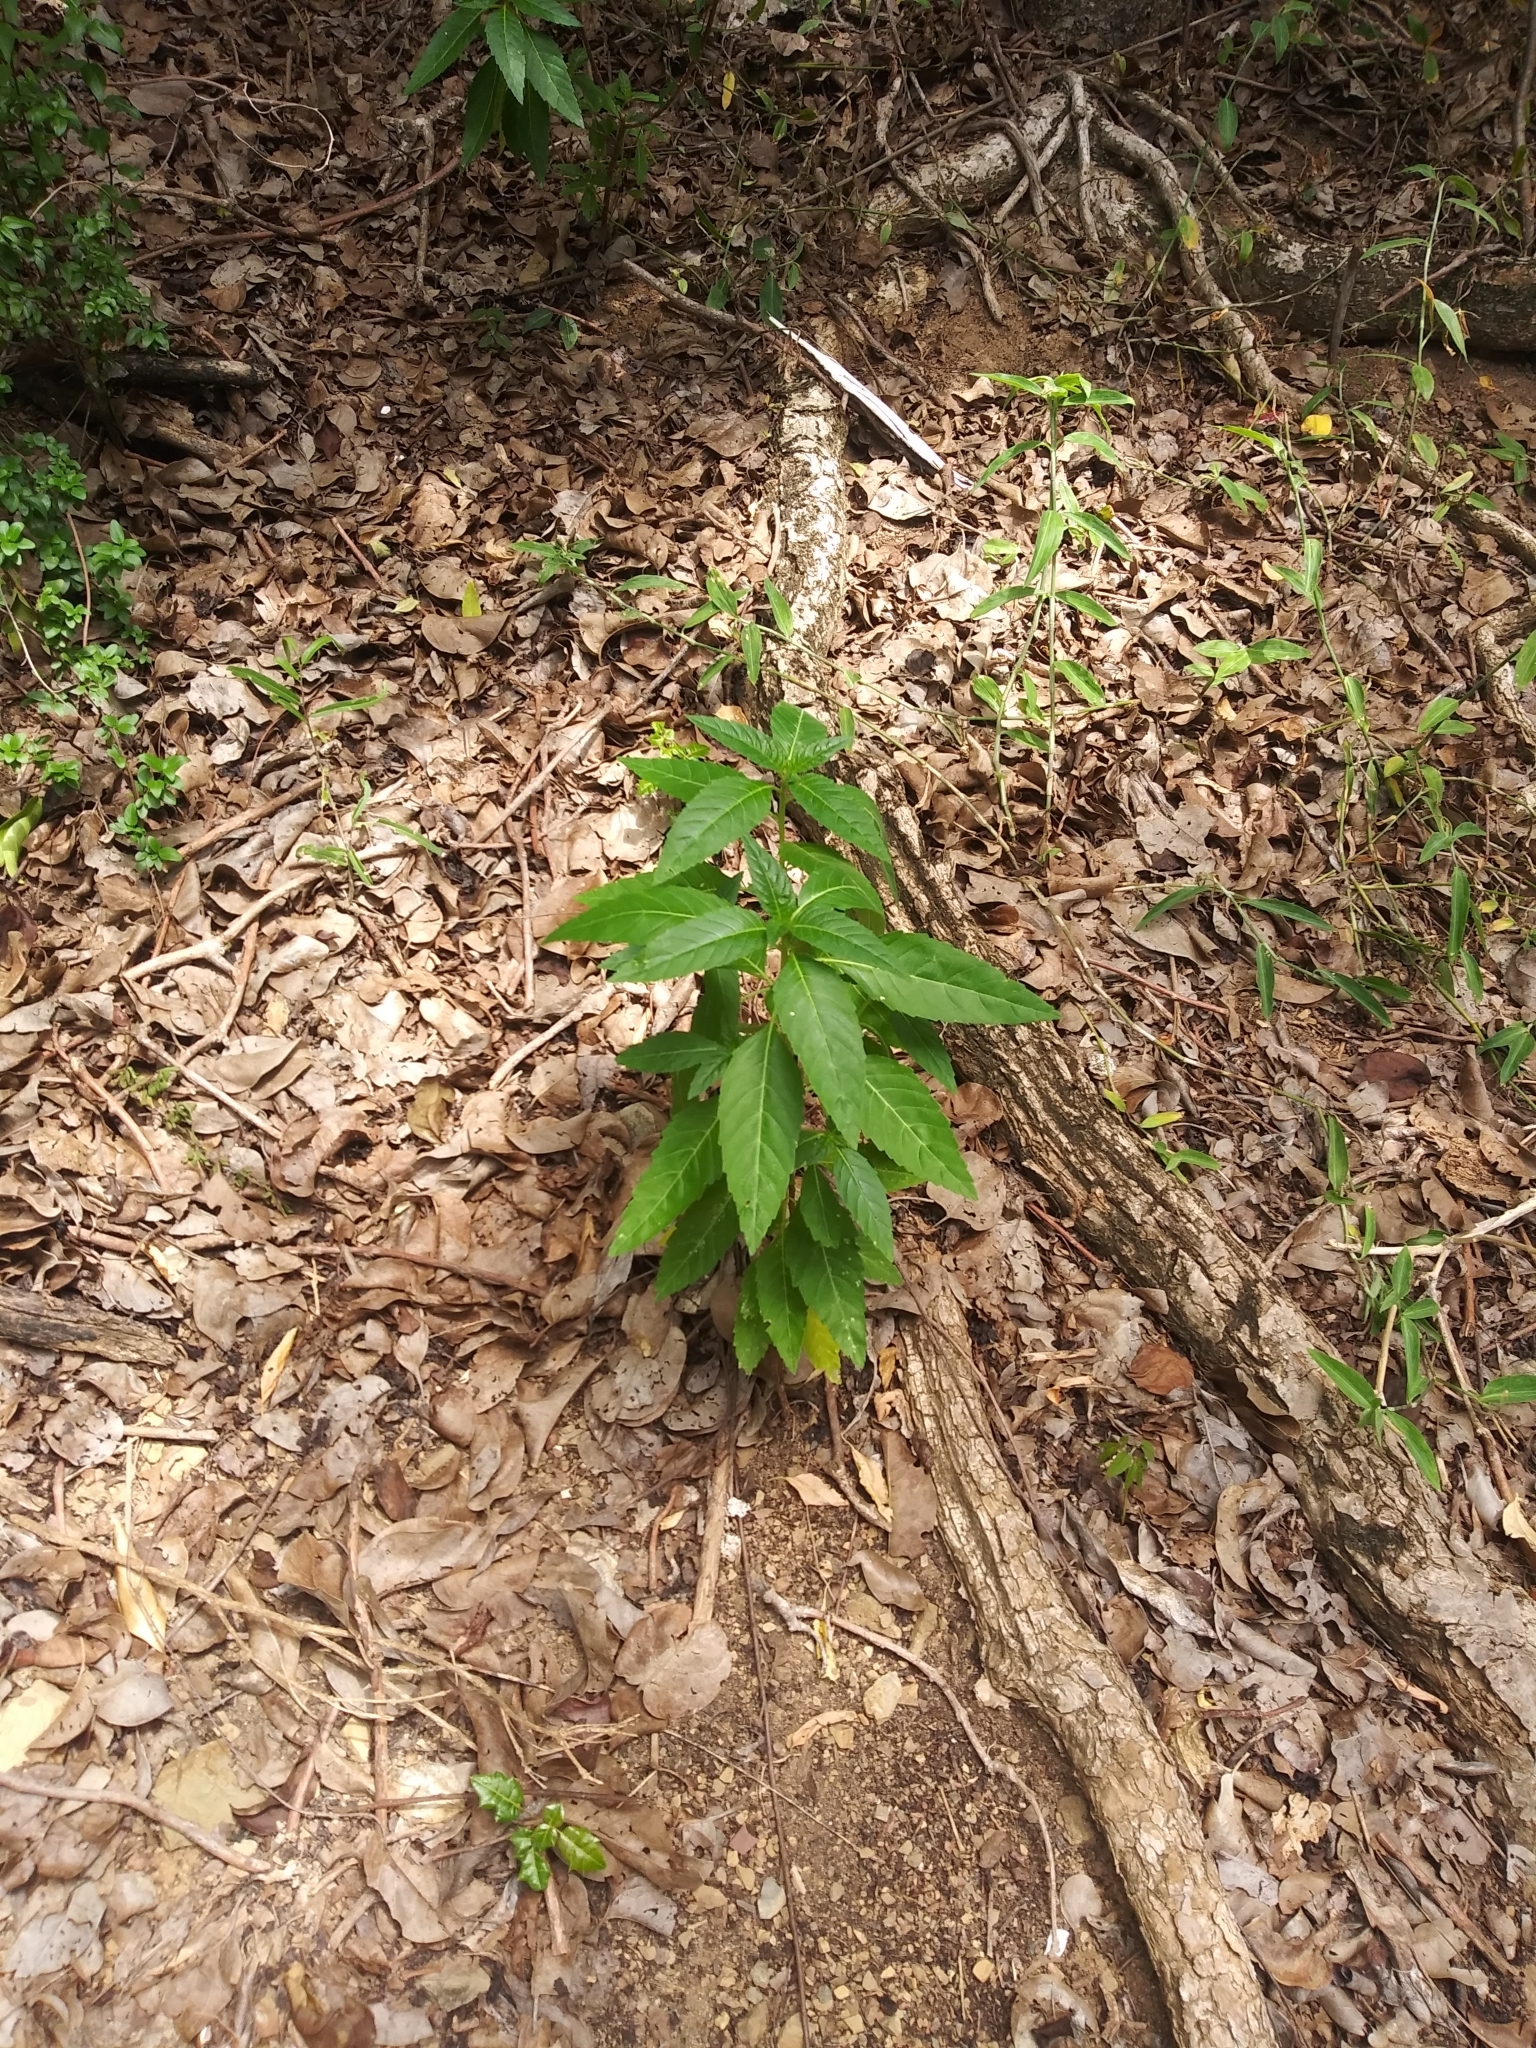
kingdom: Plantae
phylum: Tracheophyta
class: Magnoliopsida
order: Malpighiales
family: Turneraceae
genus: Turnera
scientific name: Turnera ulmifolia
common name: Ramgoat dashalong
